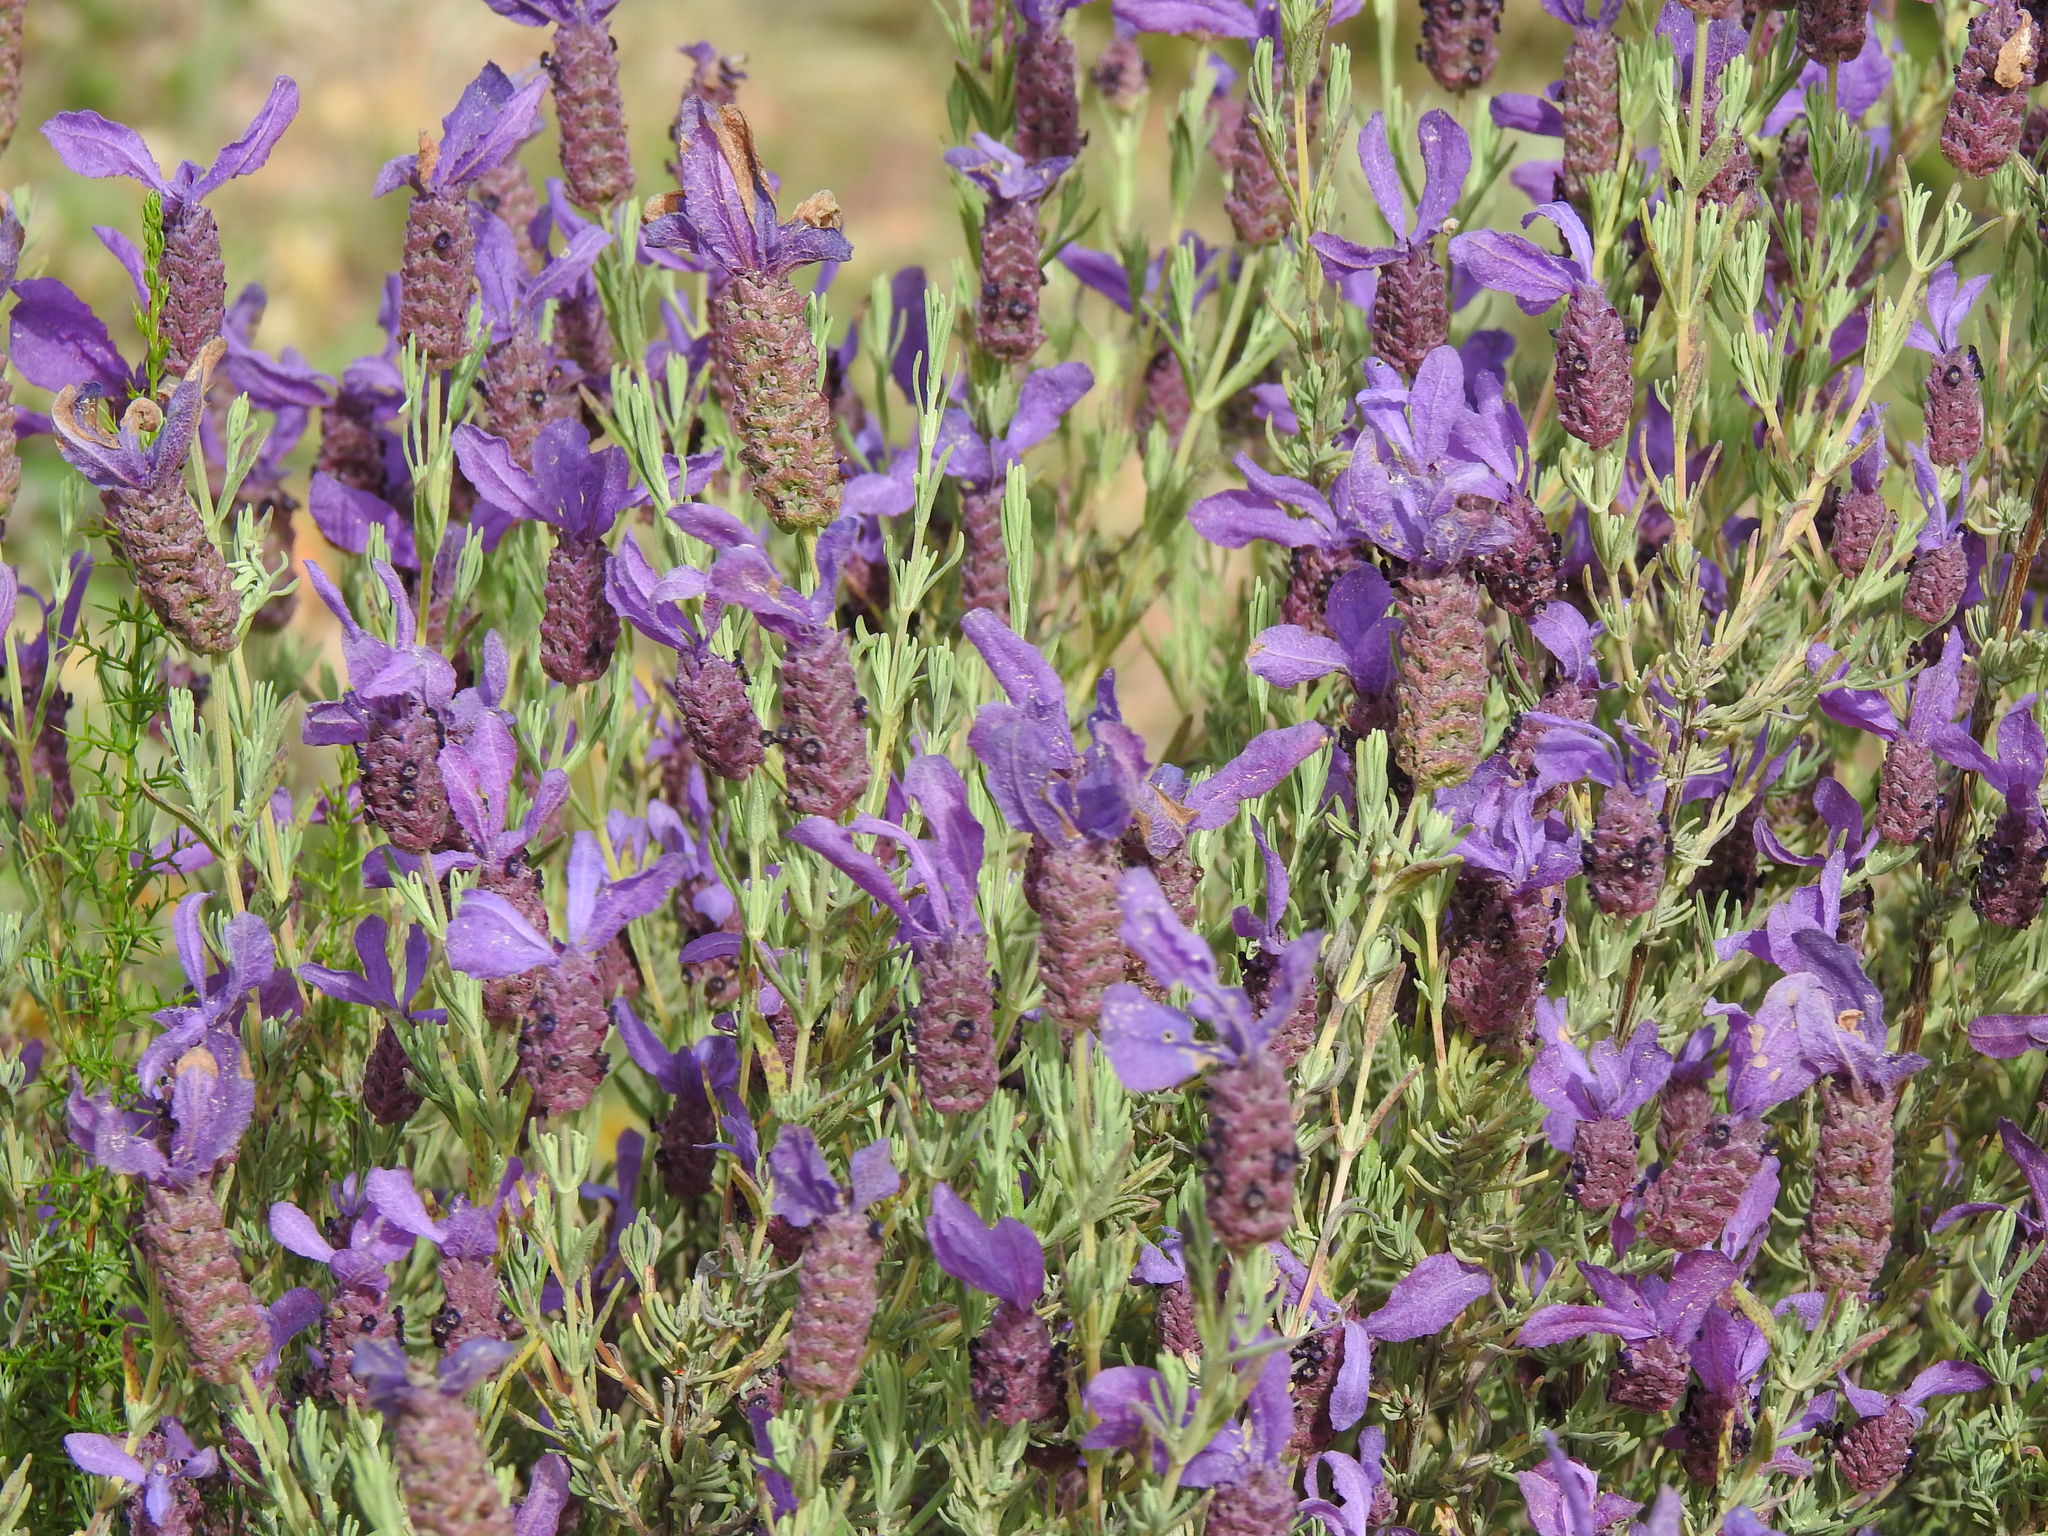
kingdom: Plantae
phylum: Tracheophyta
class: Magnoliopsida
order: Lamiales
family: Lamiaceae
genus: Lavandula
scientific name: Lavandula stoechas
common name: French lavender
